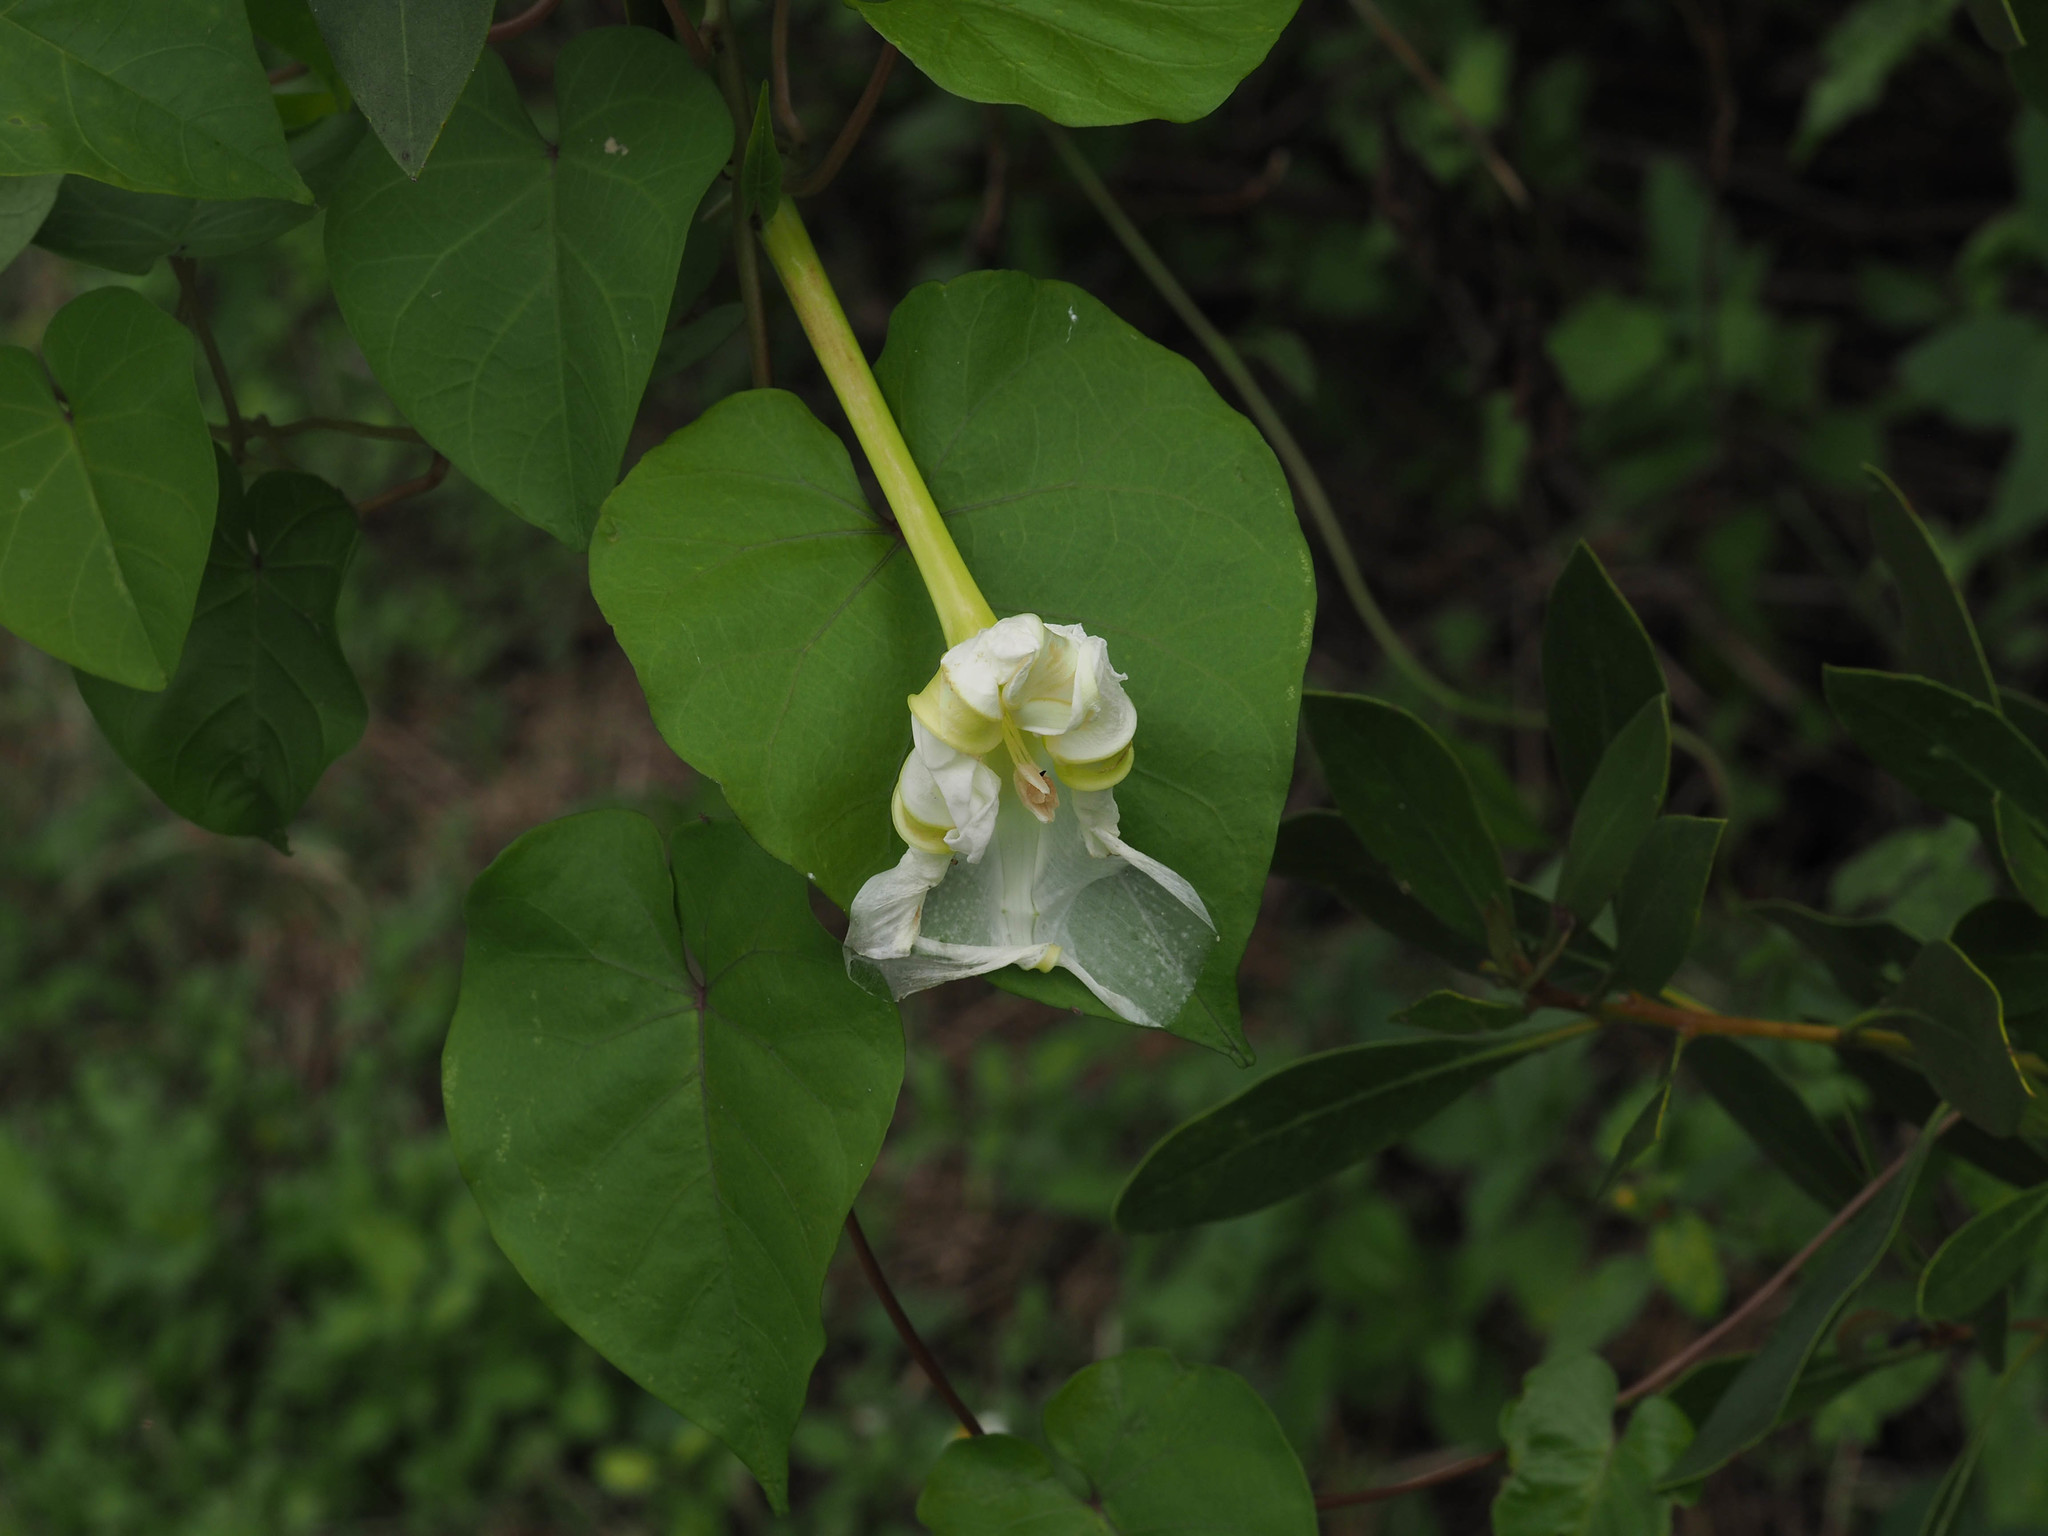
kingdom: Plantae
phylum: Tracheophyta
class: Magnoliopsida
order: Solanales
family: Convolvulaceae
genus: Ipomoea
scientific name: Ipomoea alba
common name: Moonflower
